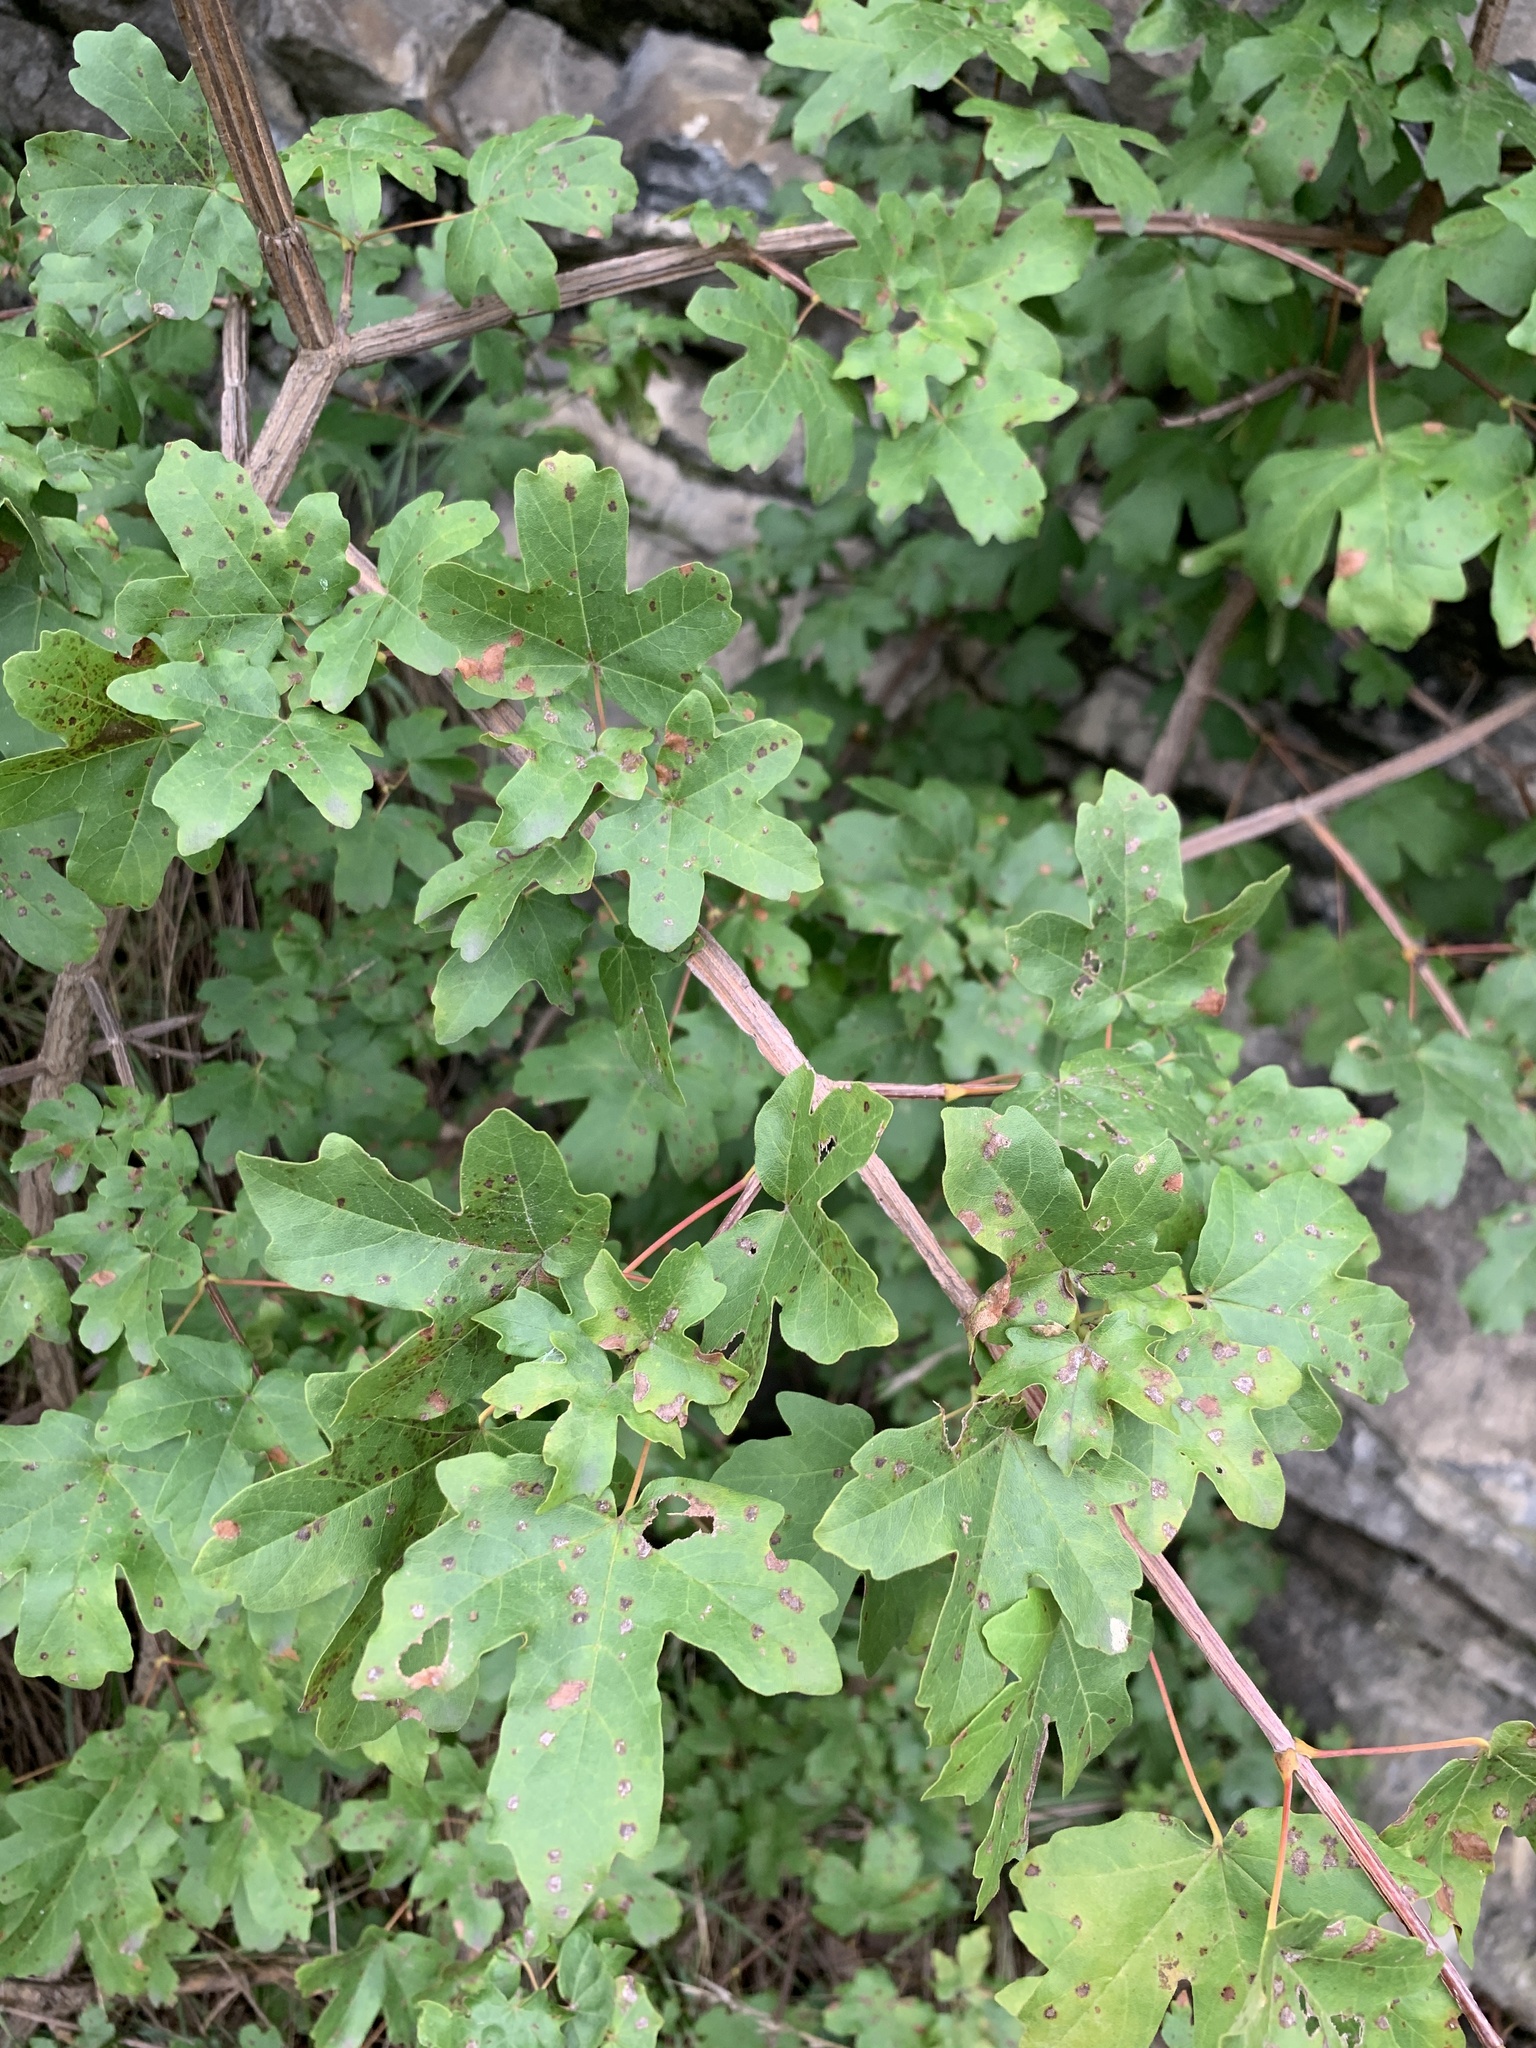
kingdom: Plantae
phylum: Tracheophyta
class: Magnoliopsida
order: Sapindales
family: Sapindaceae
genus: Acer
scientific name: Acer campestre
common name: Field maple
